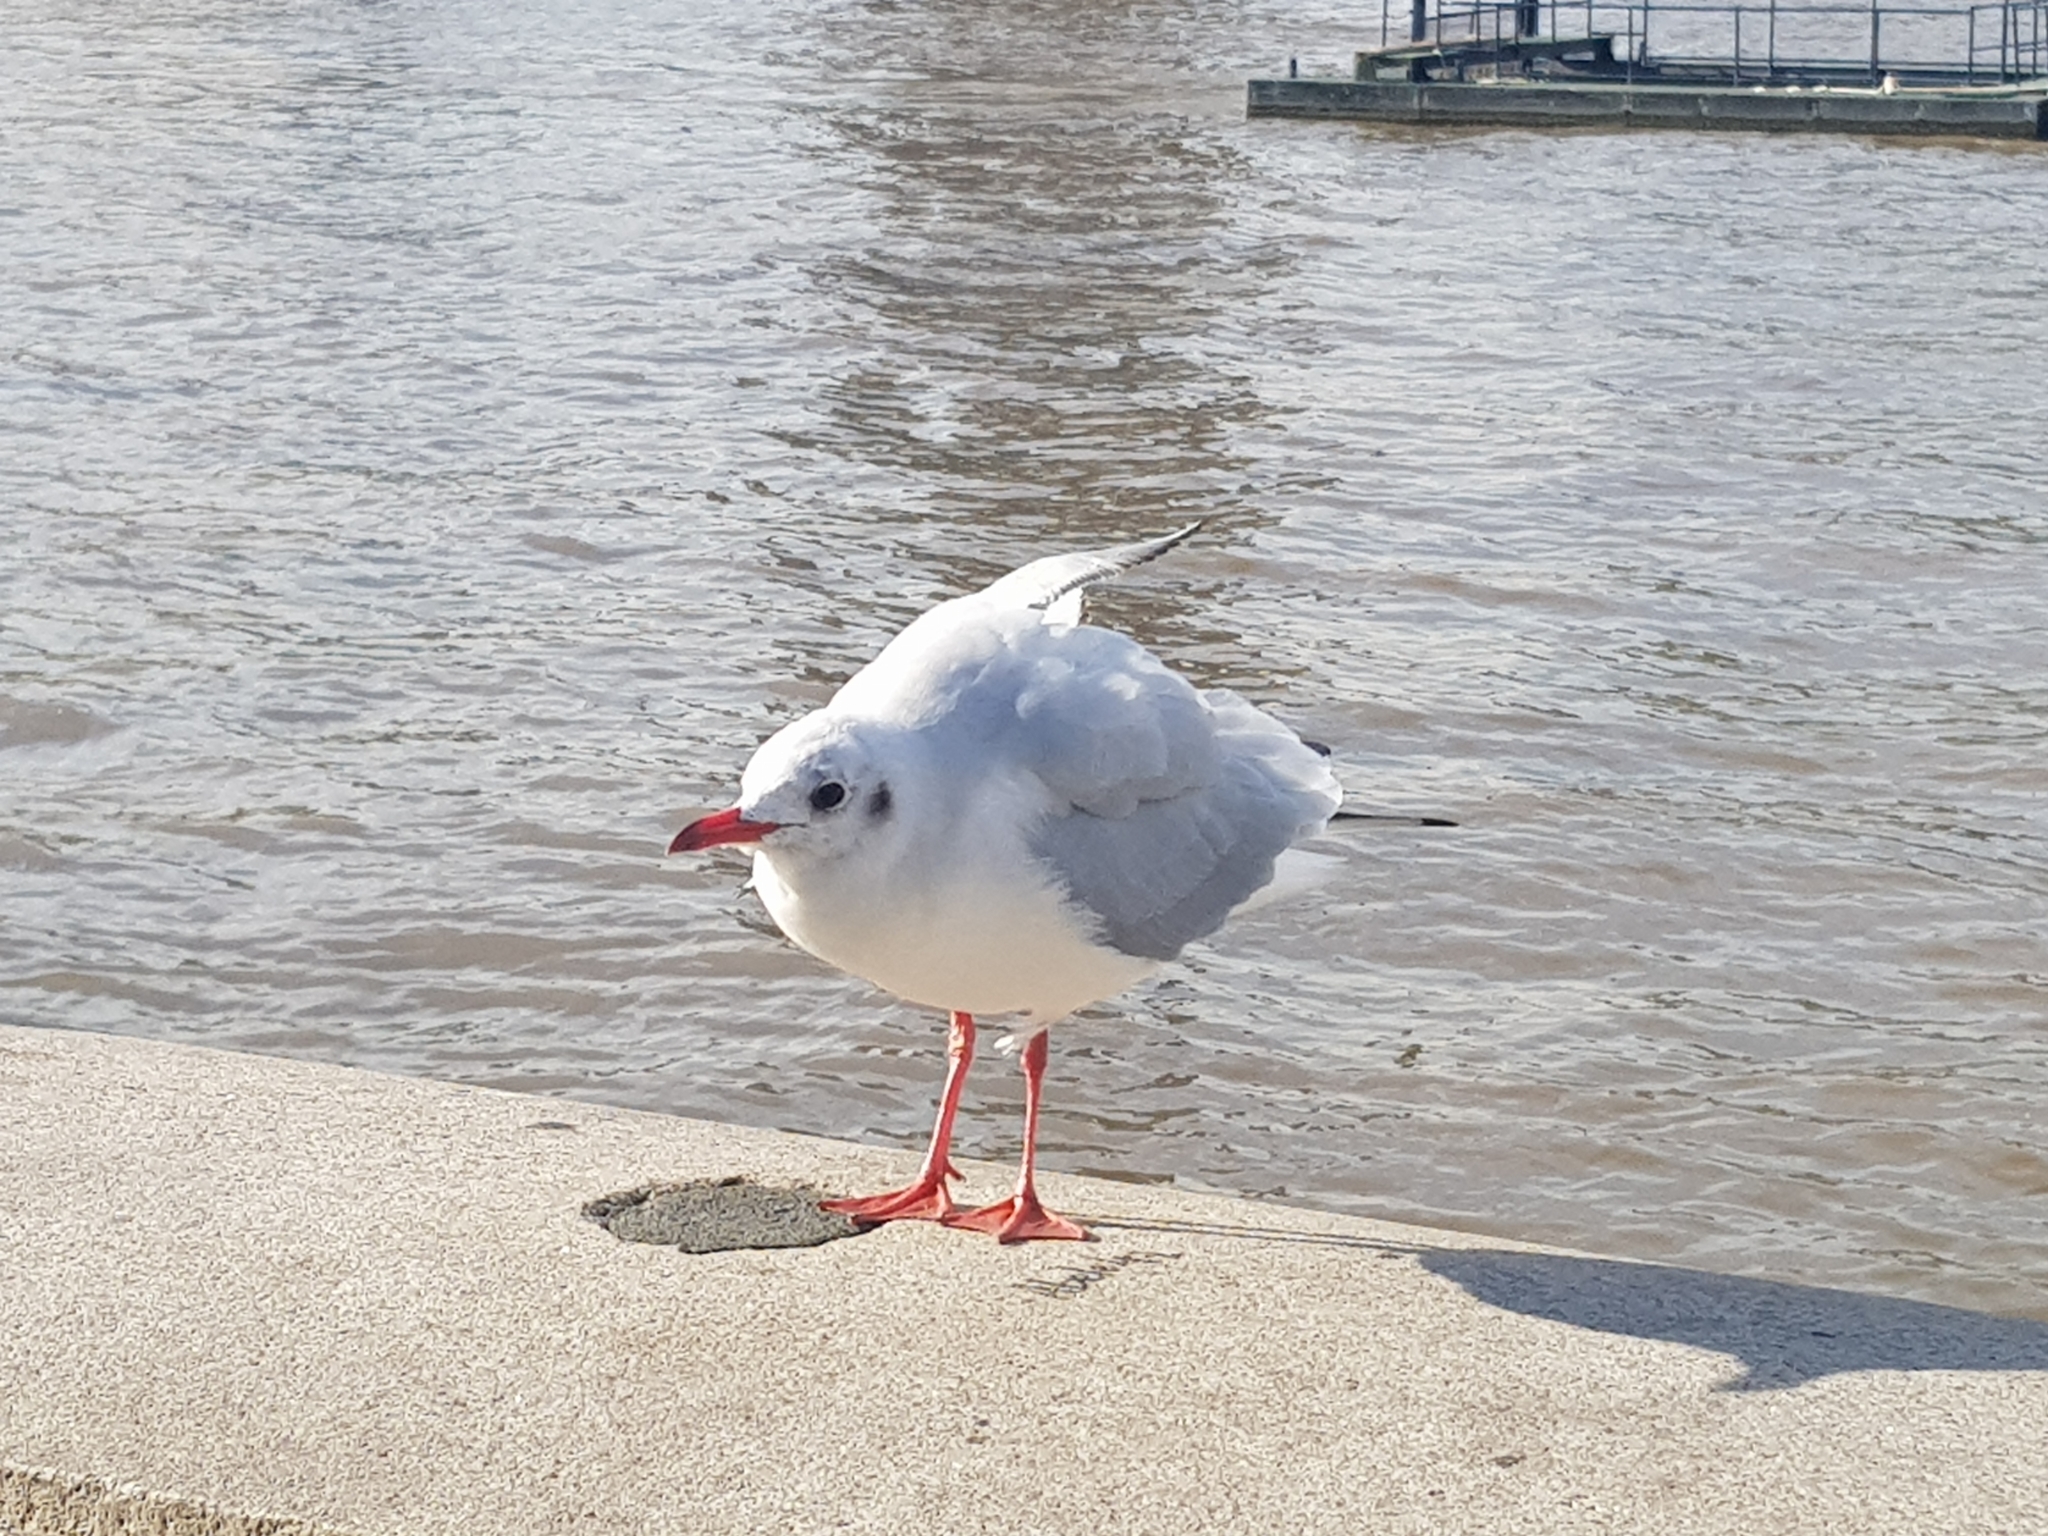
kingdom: Animalia
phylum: Chordata
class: Aves
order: Charadriiformes
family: Laridae
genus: Chroicocephalus
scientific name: Chroicocephalus ridibundus
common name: Black-headed gull
